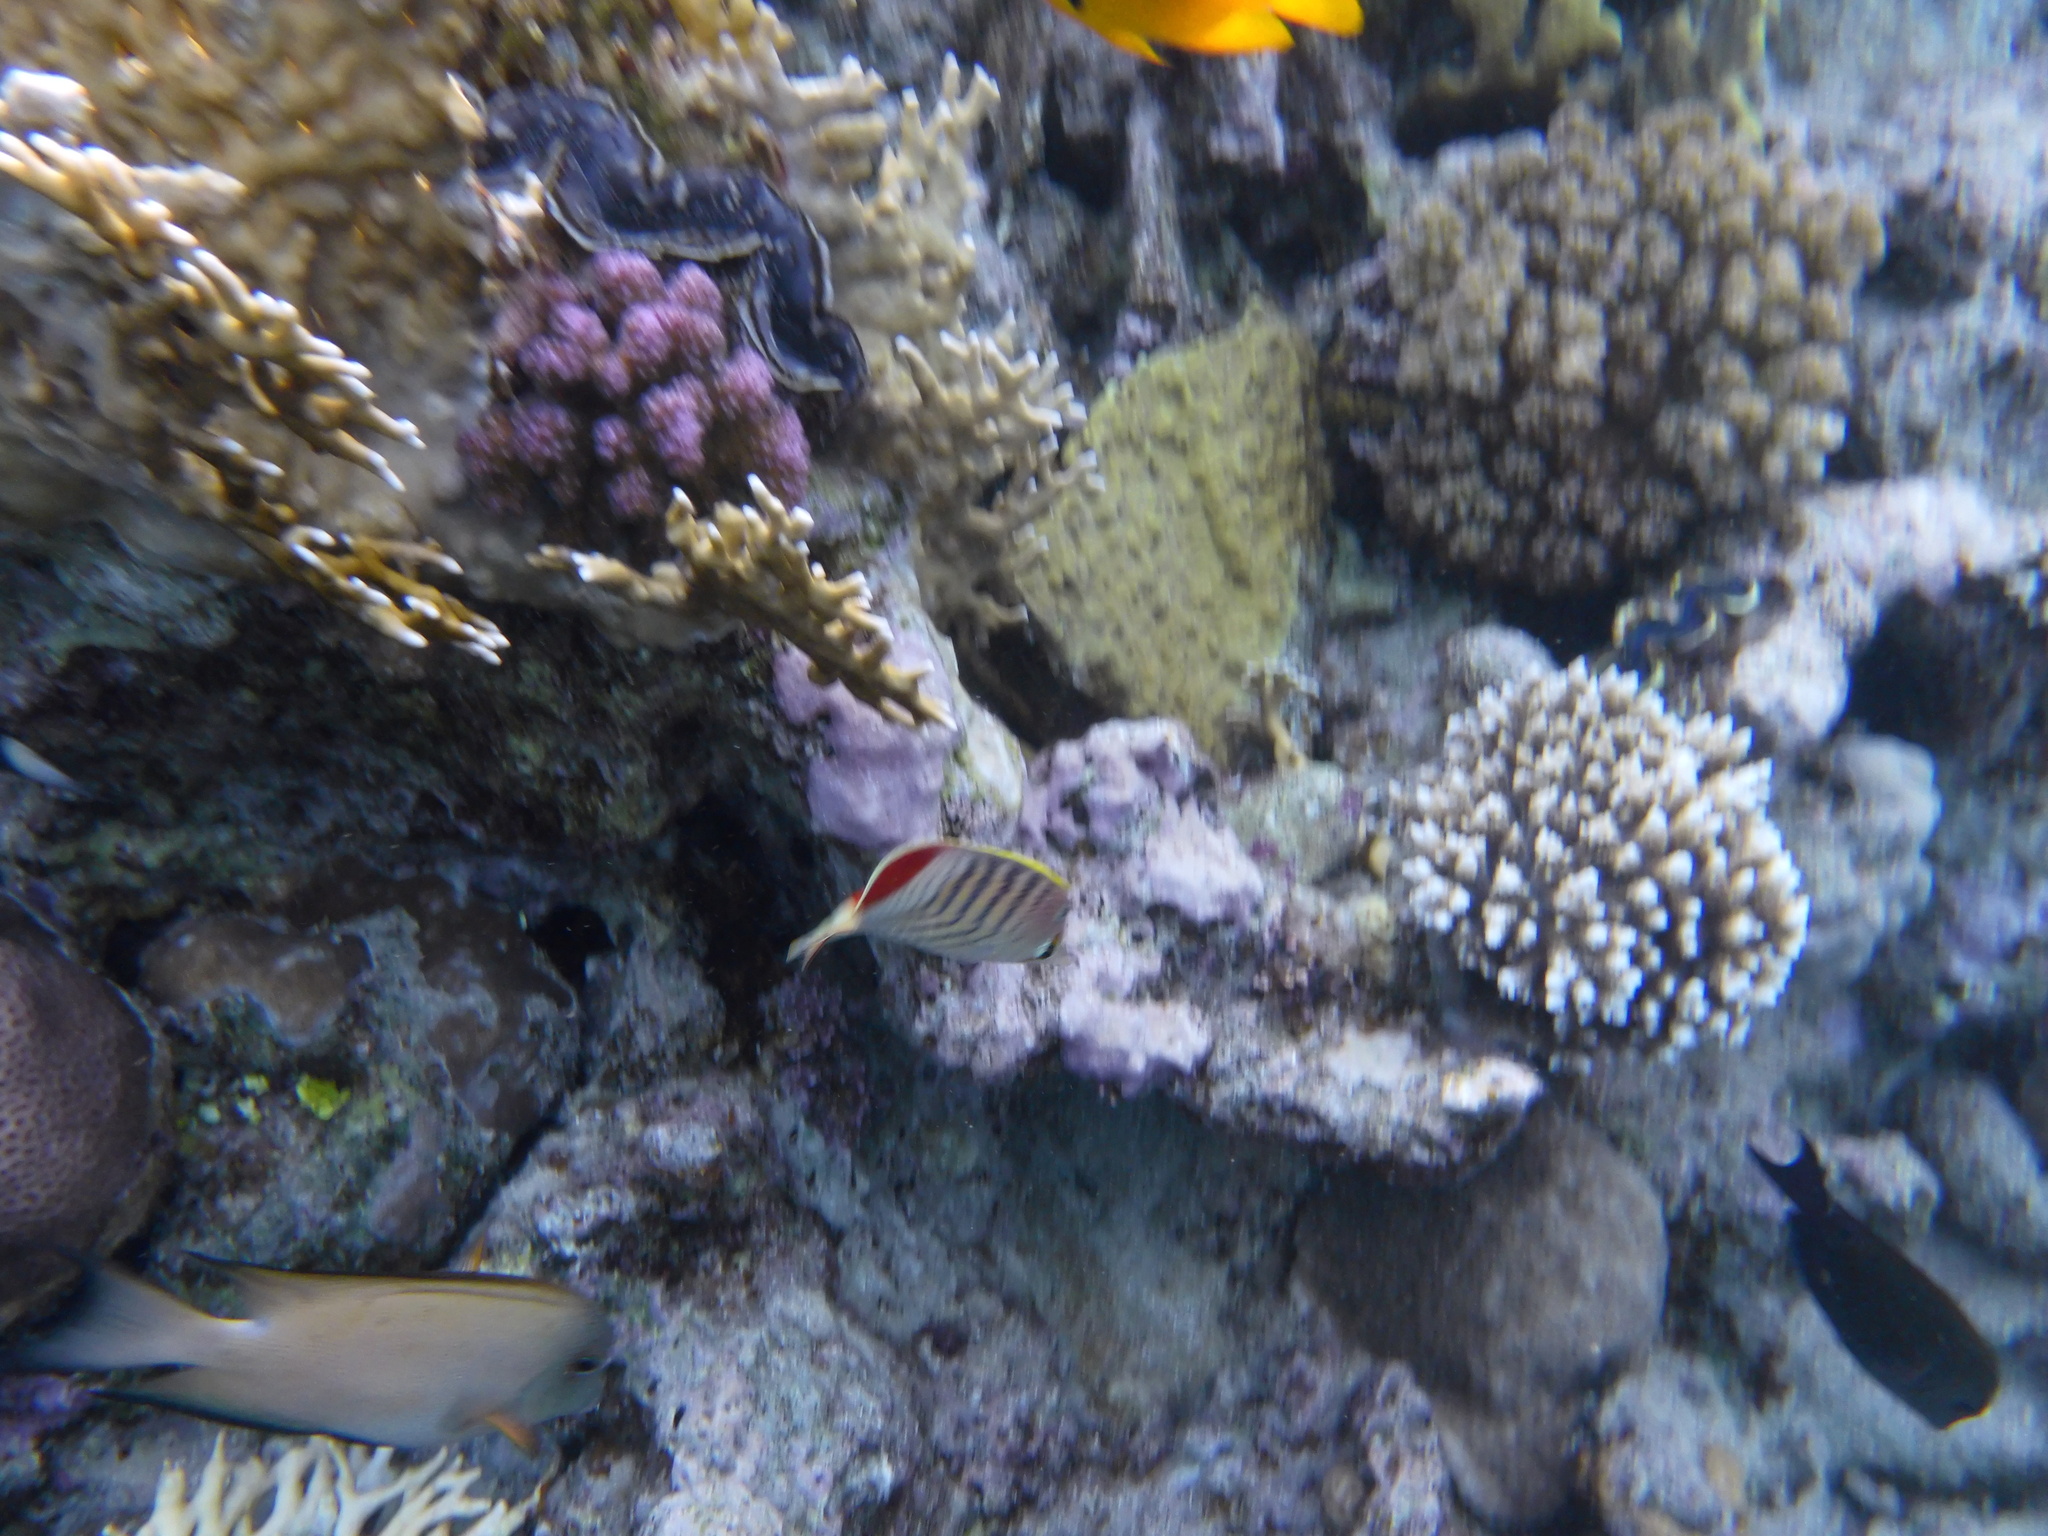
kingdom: Animalia
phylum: Chordata
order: Perciformes
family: Chaetodontidae
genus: Chaetodon
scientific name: Chaetodon paucifasciatus
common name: Crown butterflyfish
